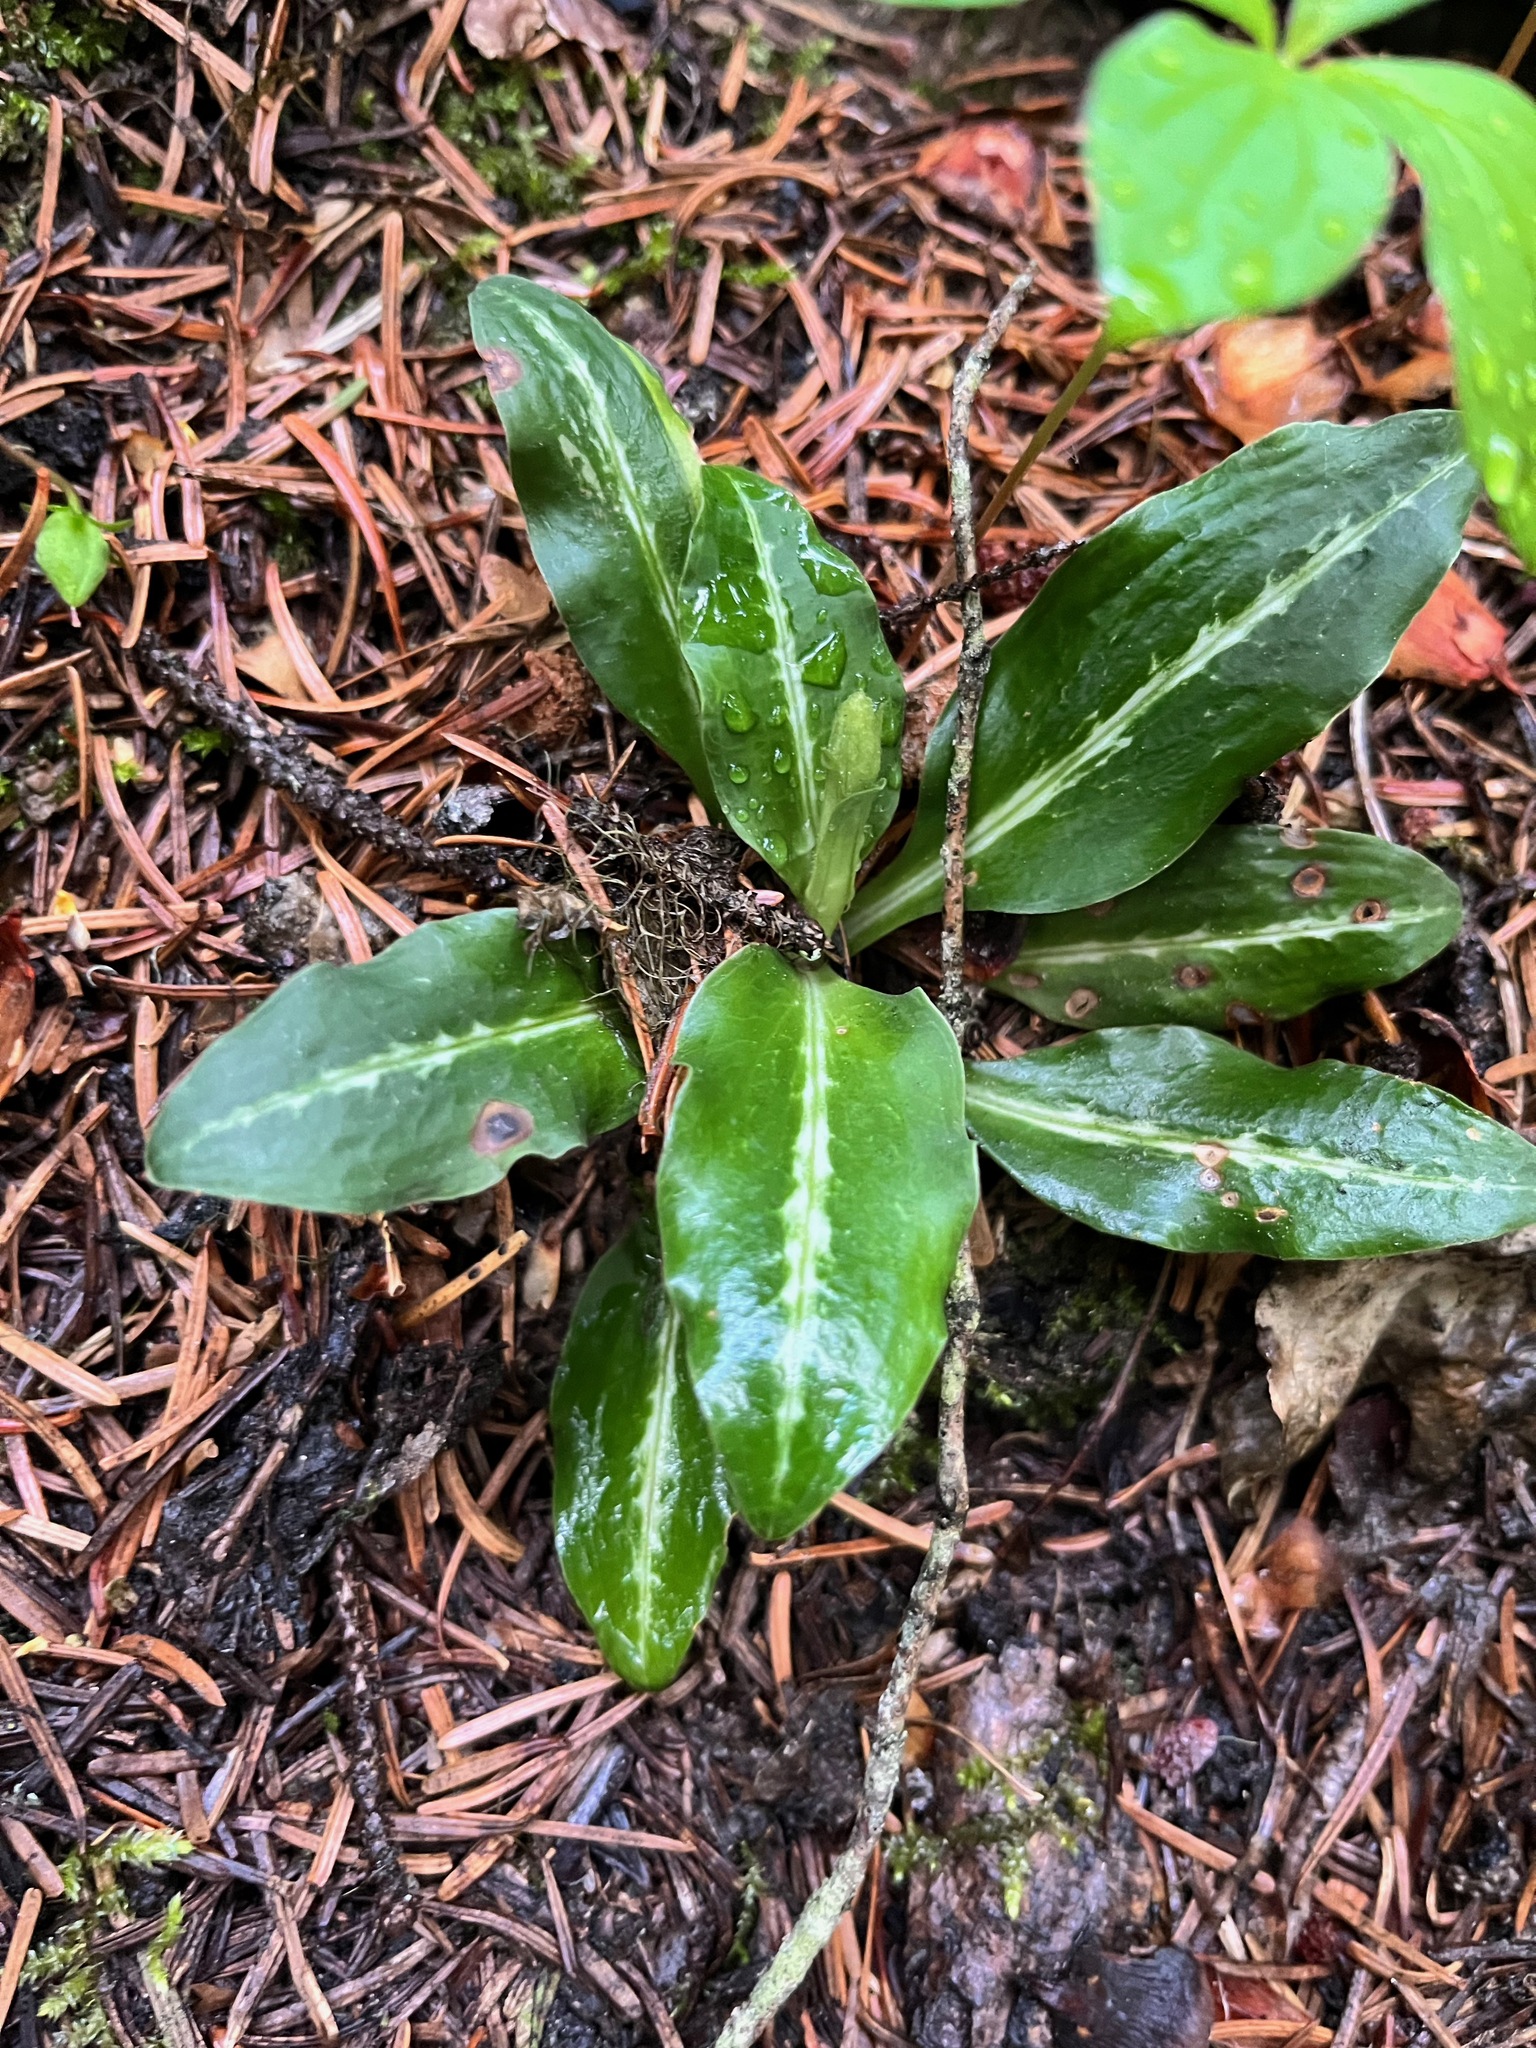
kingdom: Plantae
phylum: Tracheophyta
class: Liliopsida
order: Asparagales
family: Orchidaceae
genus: Goodyera
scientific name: Goodyera oblongifolia
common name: Giant rattlesnake-plantain
